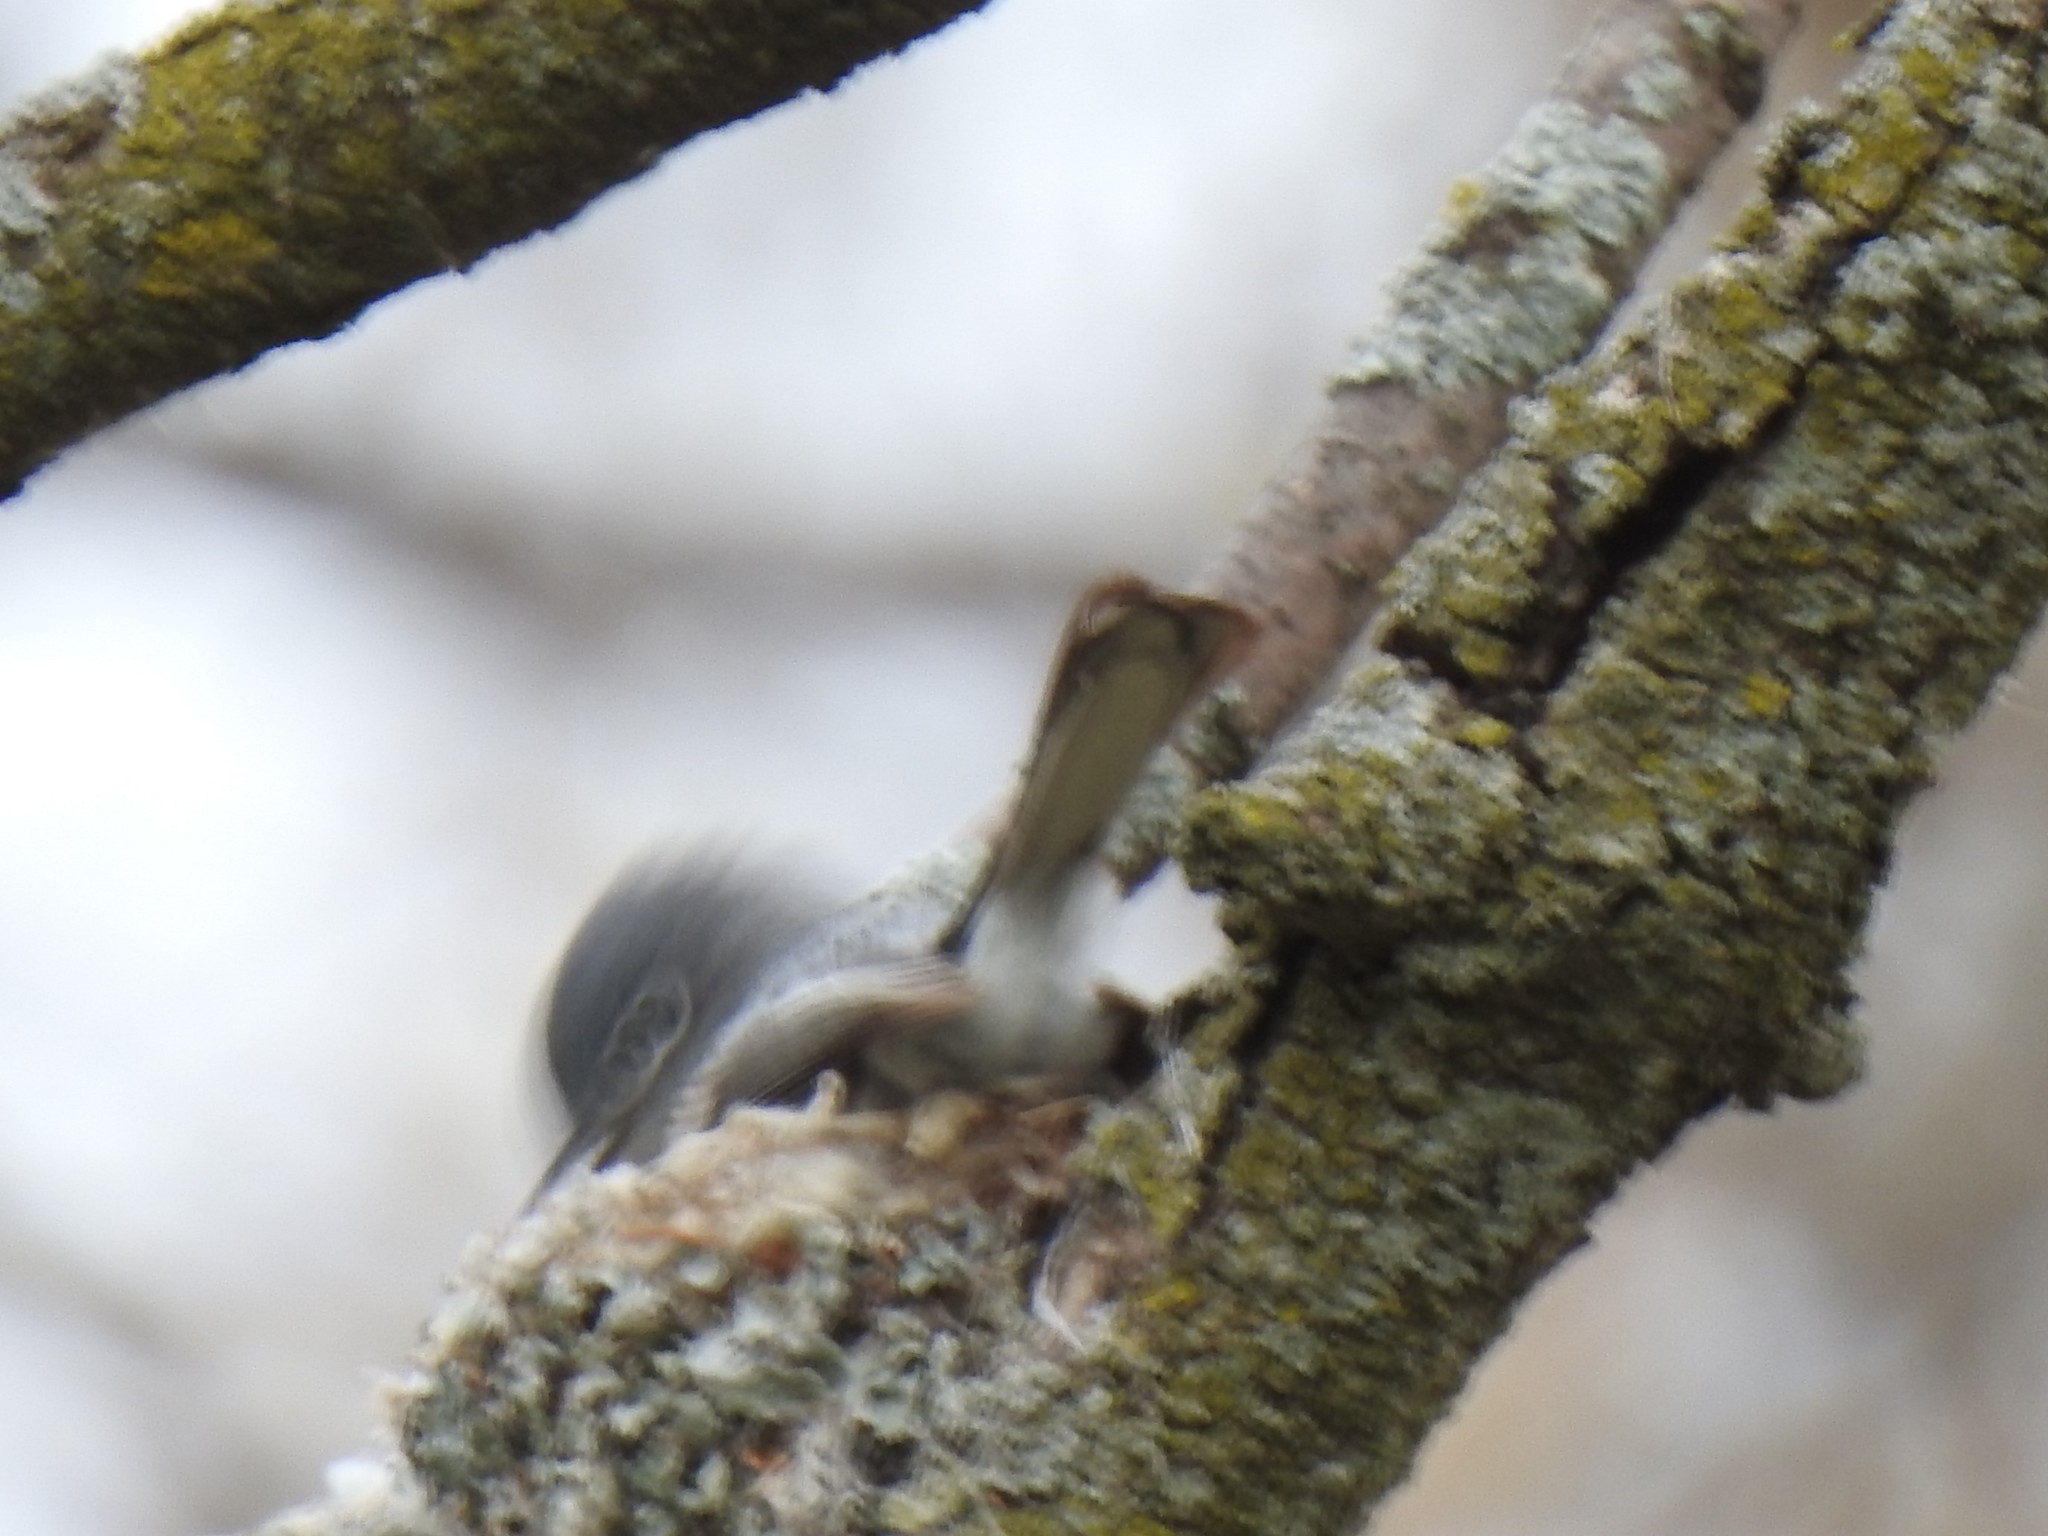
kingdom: Animalia
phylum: Chordata
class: Aves
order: Passeriformes
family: Polioptilidae
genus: Polioptila
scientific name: Polioptila caerulea
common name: Blue-gray gnatcatcher
